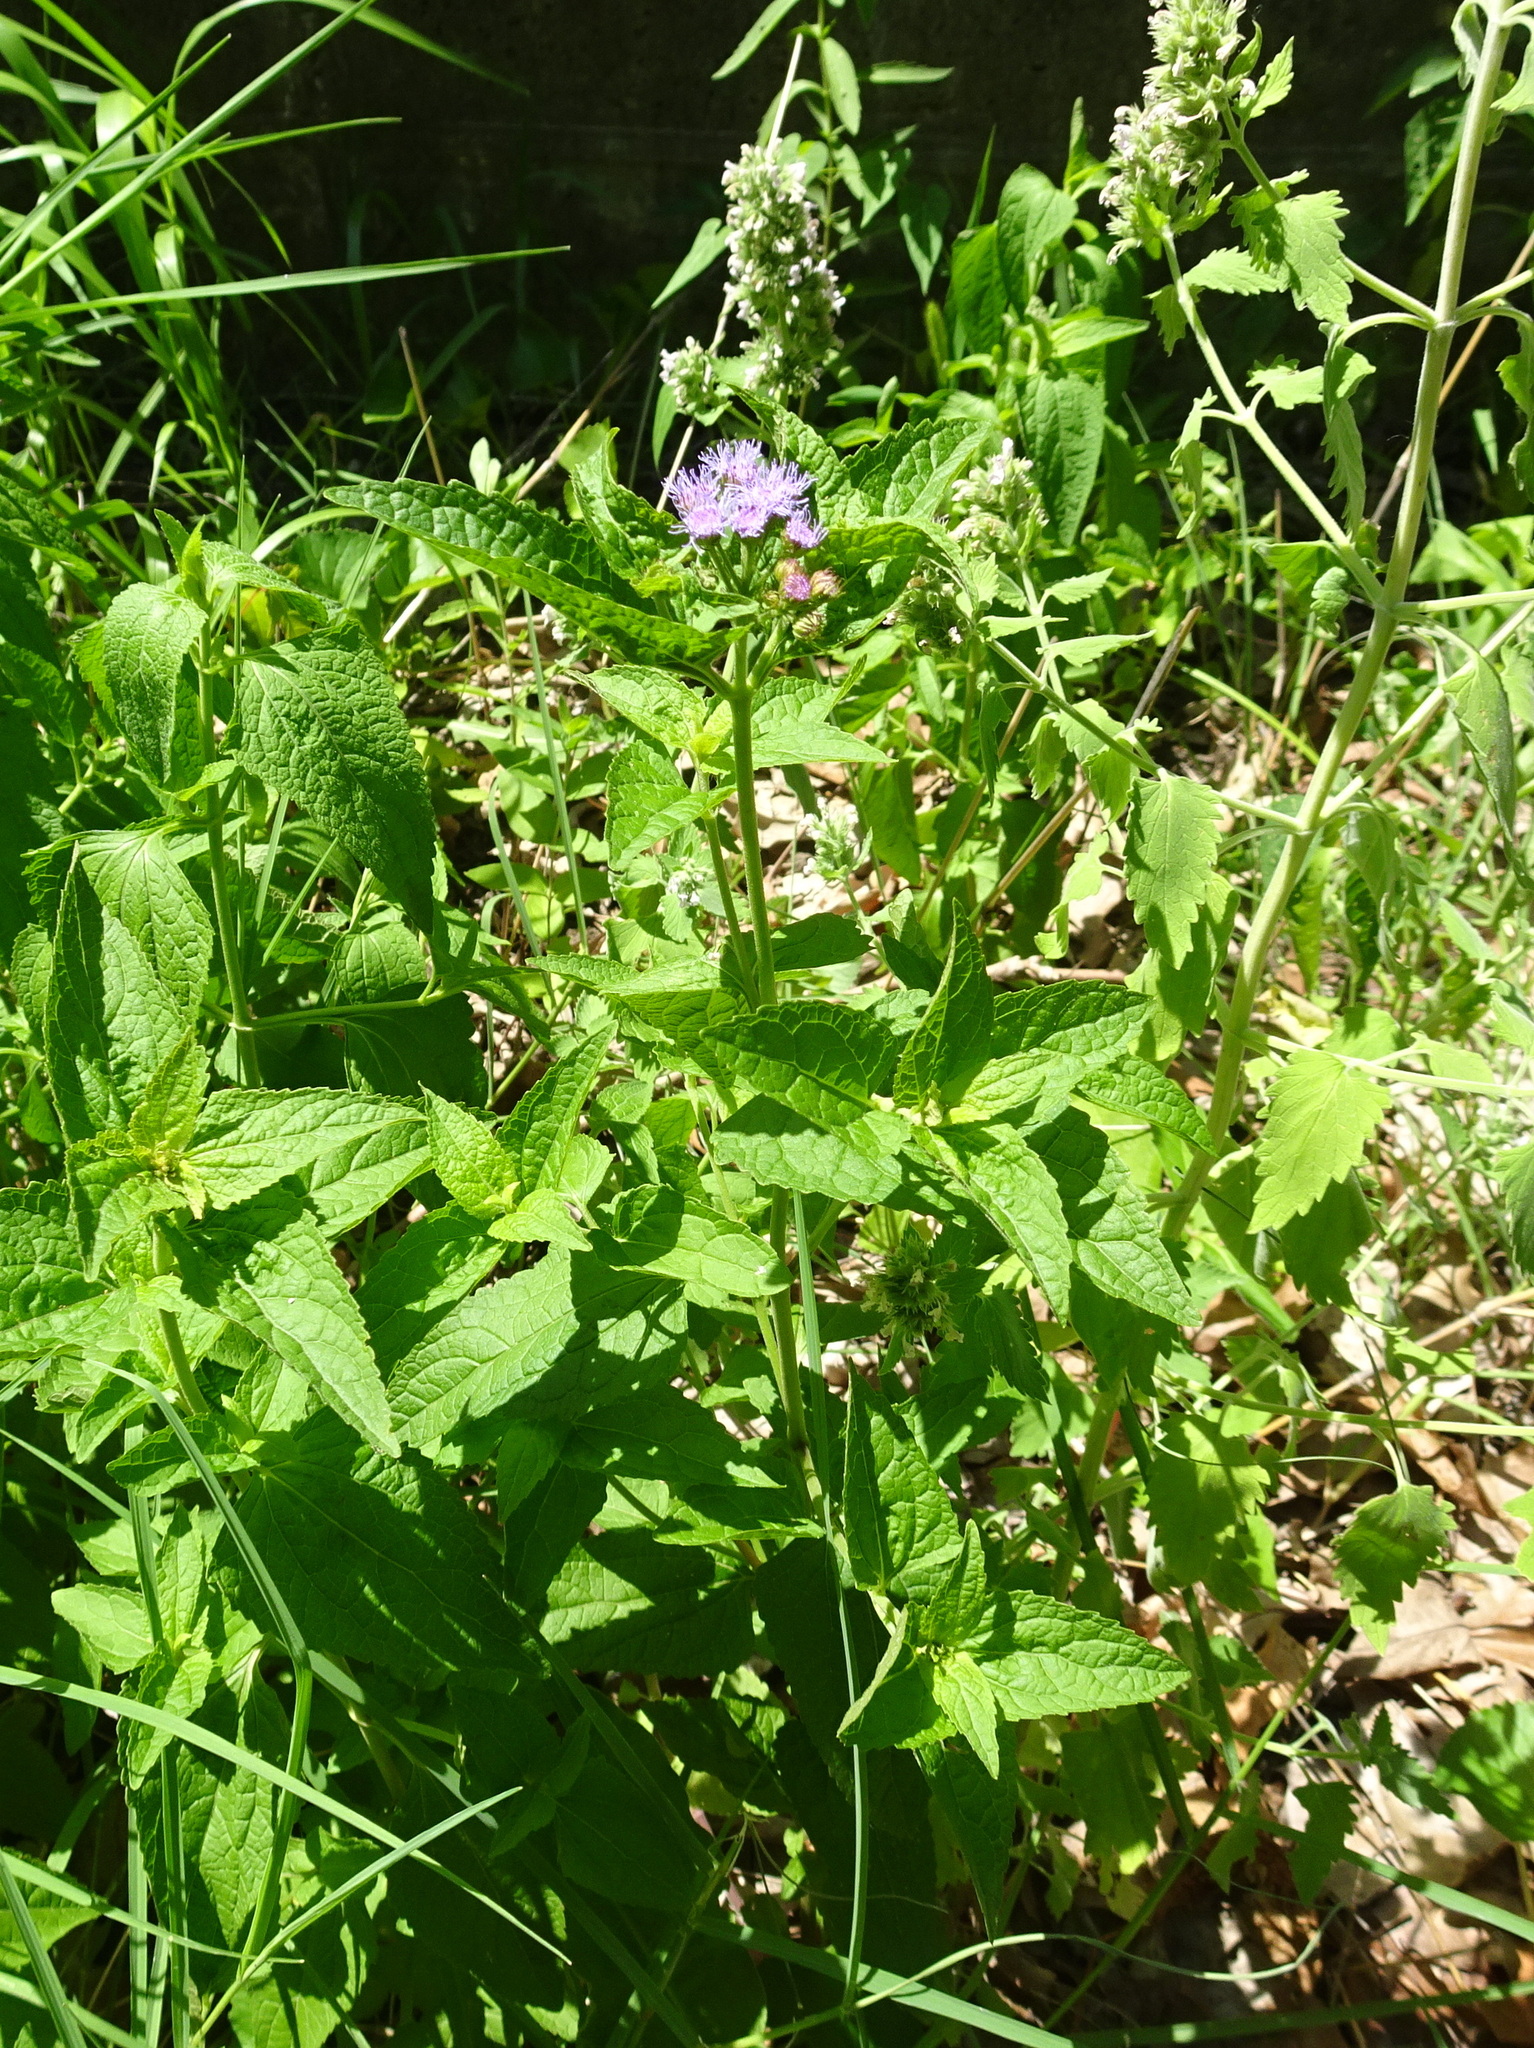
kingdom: Plantae
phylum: Tracheophyta
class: Magnoliopsida
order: Asterales
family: Asteraceae
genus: Conoclinium
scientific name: Conoclinium coelestinum
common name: Blue mistflower
